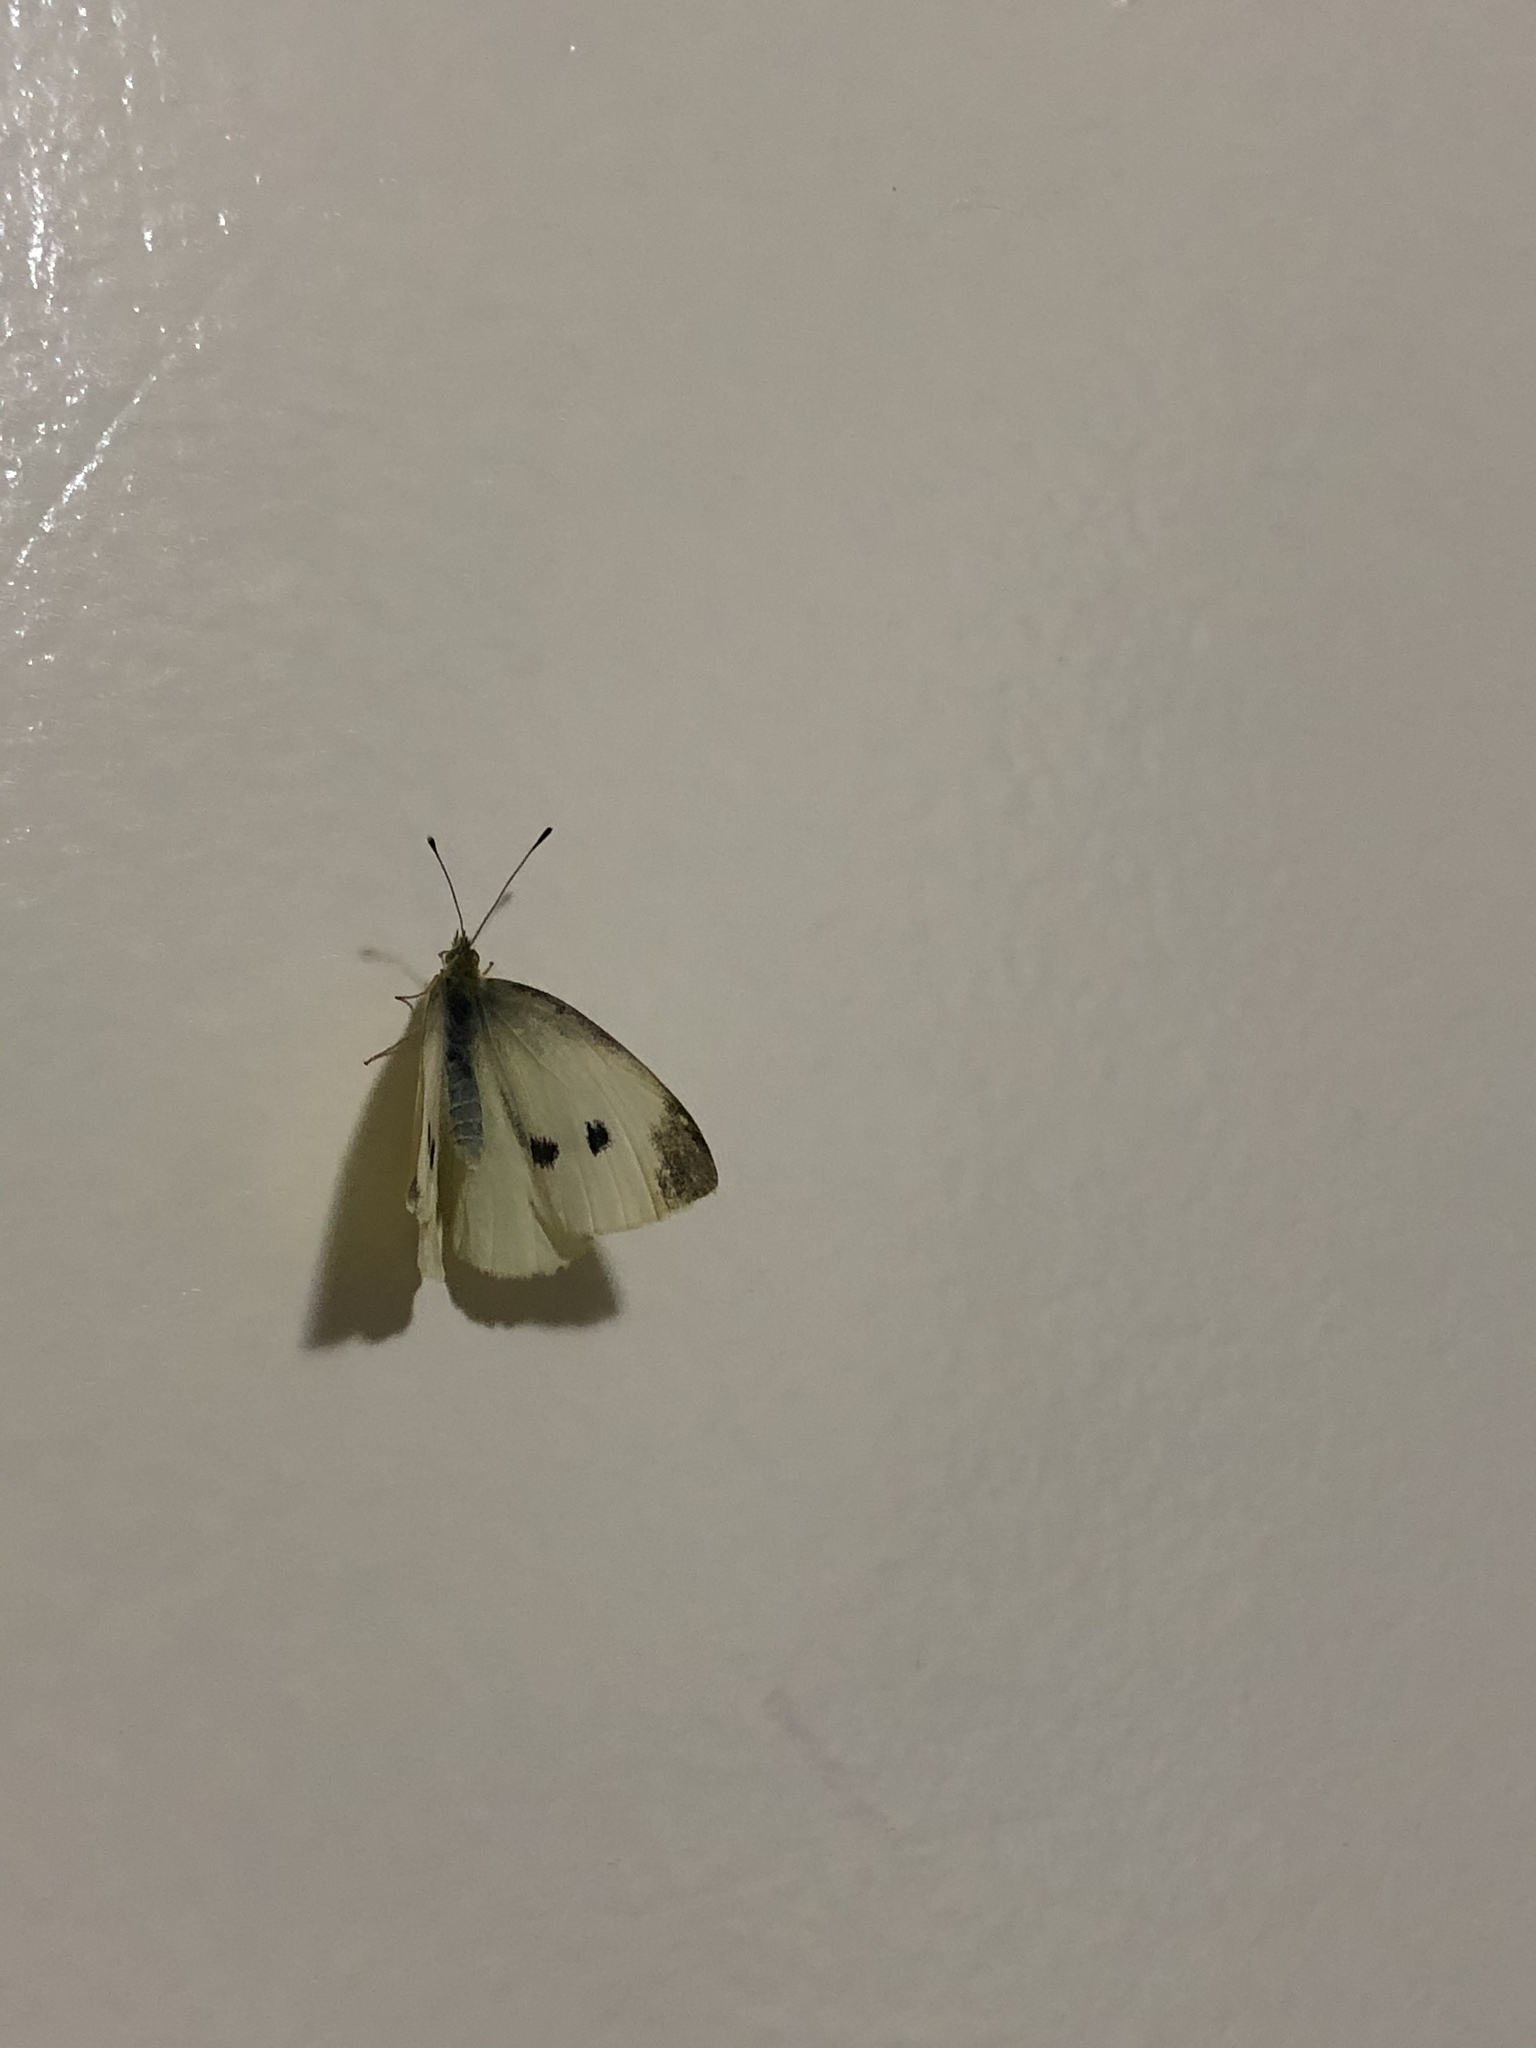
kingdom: Animalia
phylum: Arthropoda
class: Insecta
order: Lepidoptera
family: Pieridae
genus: Pieris
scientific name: Pieris rapae
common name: Small white
